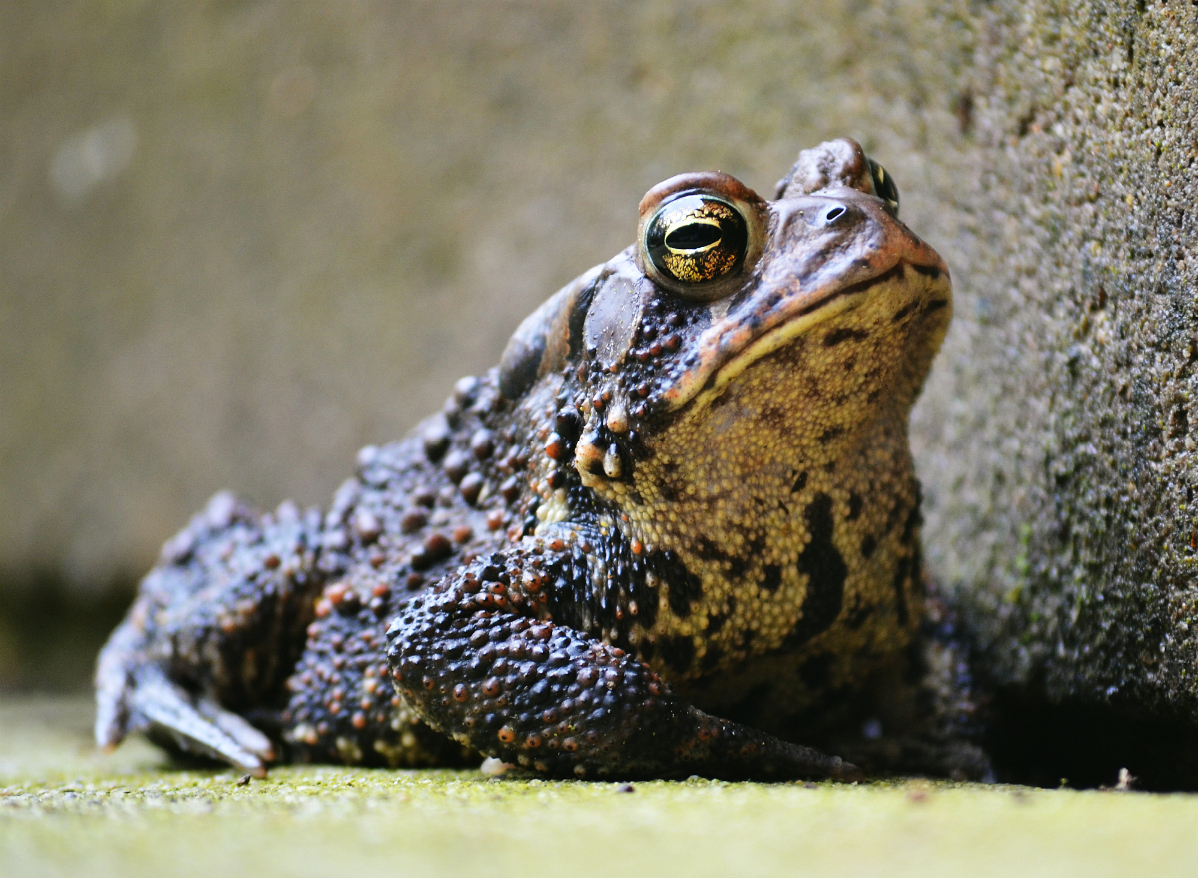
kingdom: Animalia
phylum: Chordata
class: Amphibia
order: Anura
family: Bufonidae
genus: Anaxyrus
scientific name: Anaxyrus americanus
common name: American toad
